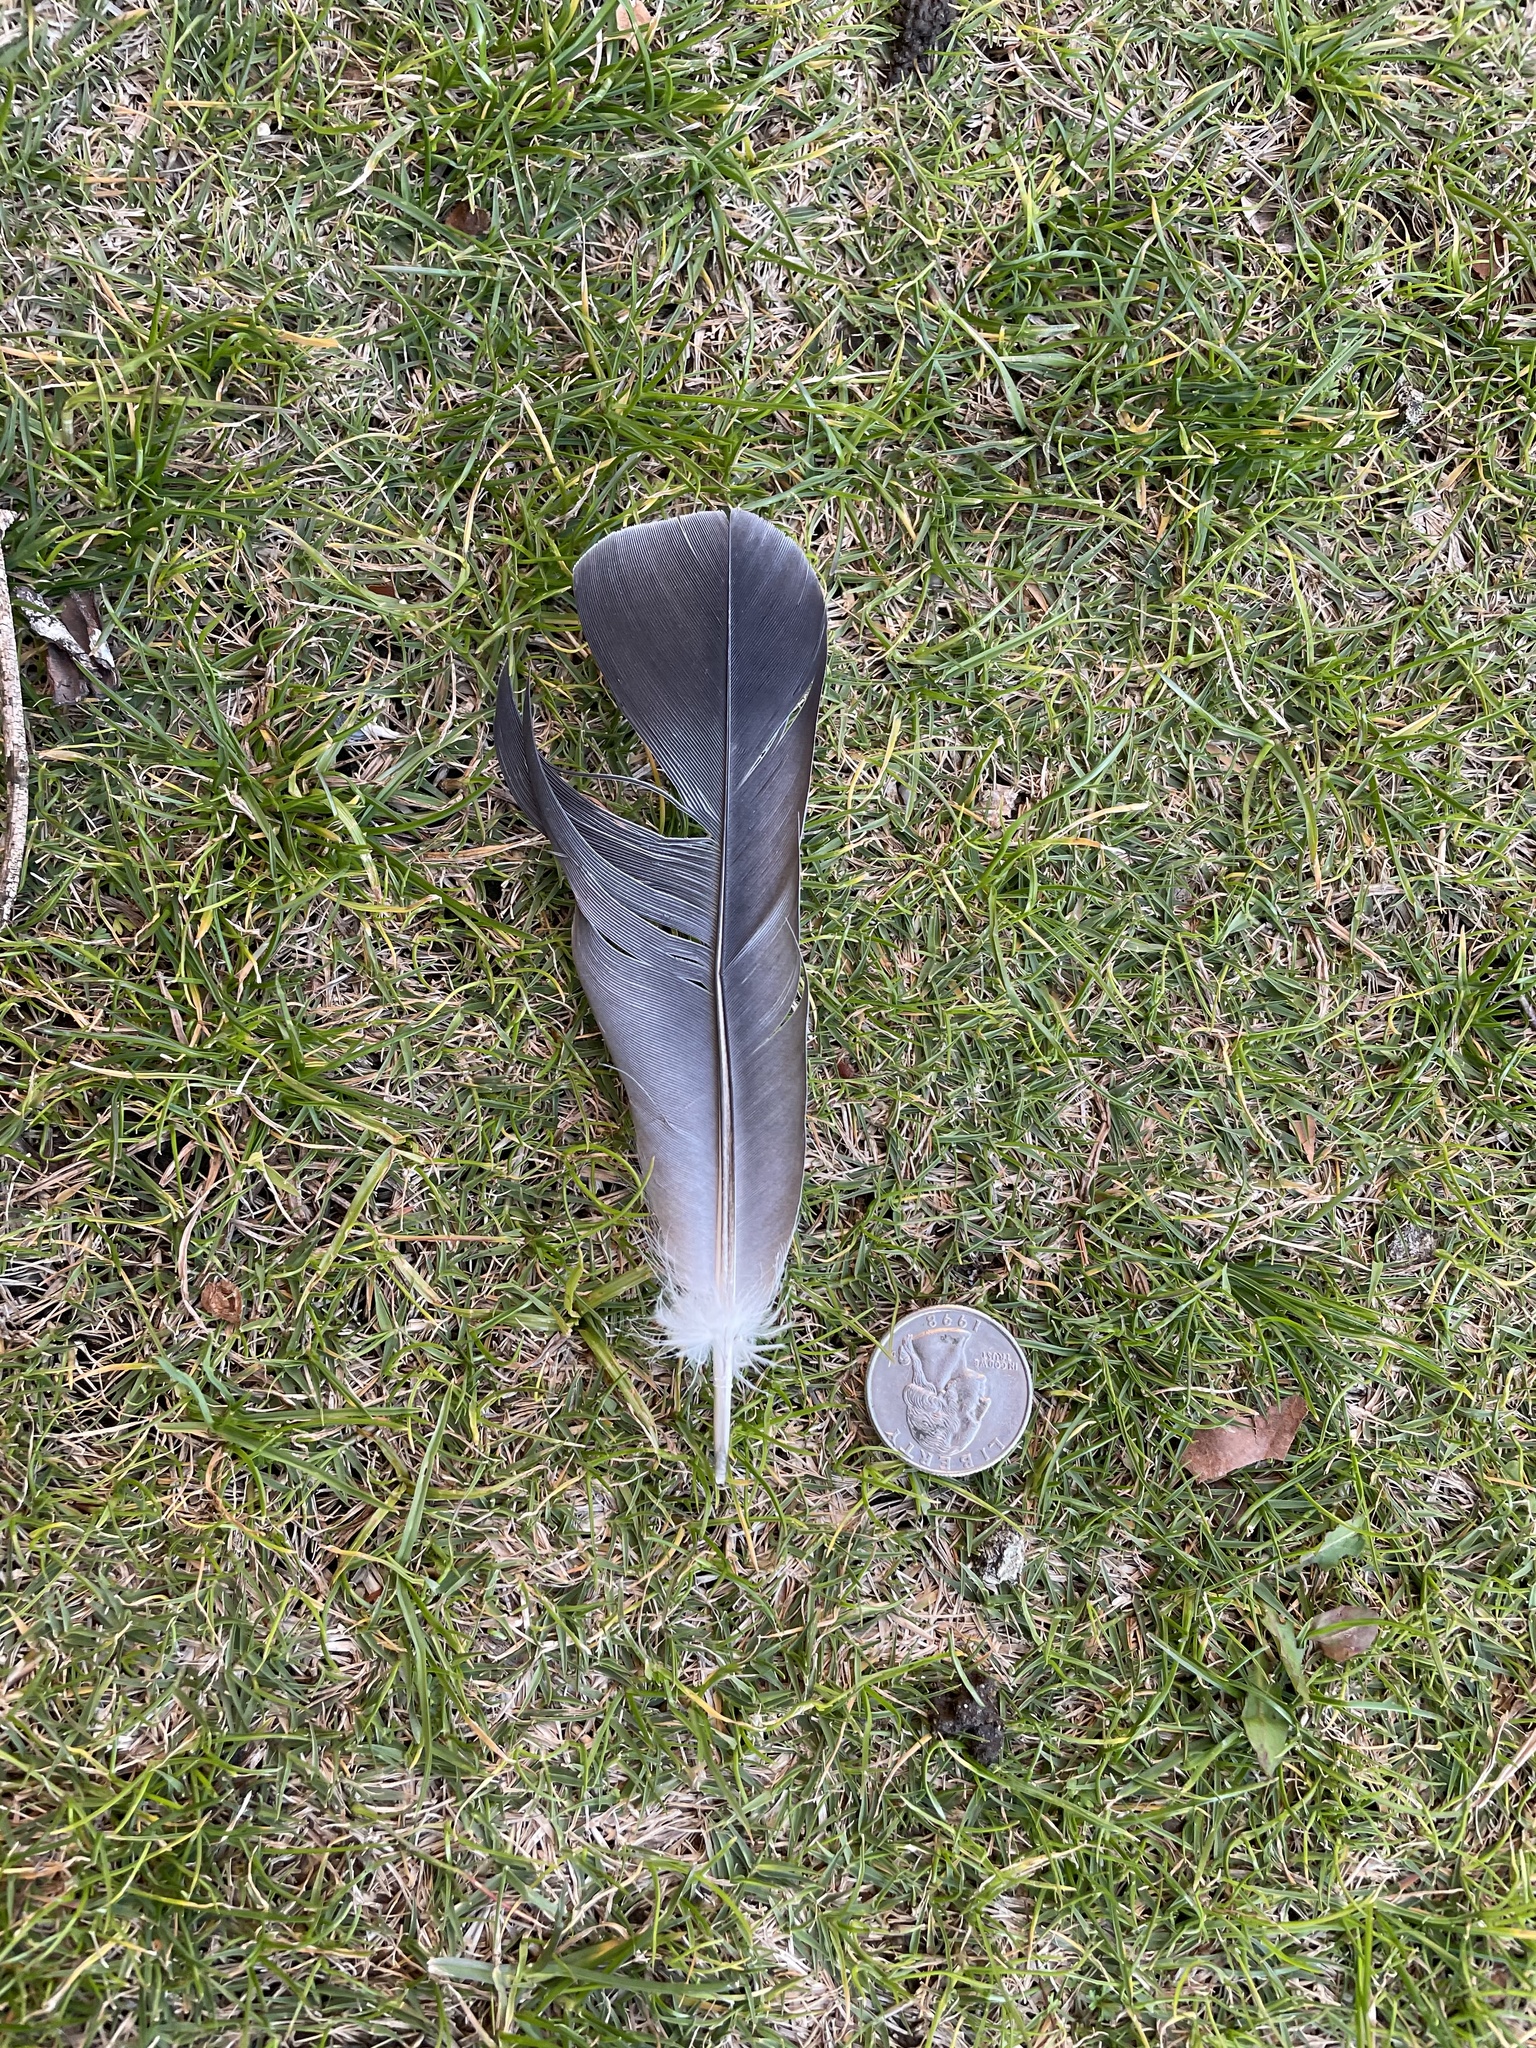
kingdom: Animalia
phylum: Chordata
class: Aves
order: Columbiformes
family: Columbidae
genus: Columba
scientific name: Columba livia
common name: Rock pigeon
